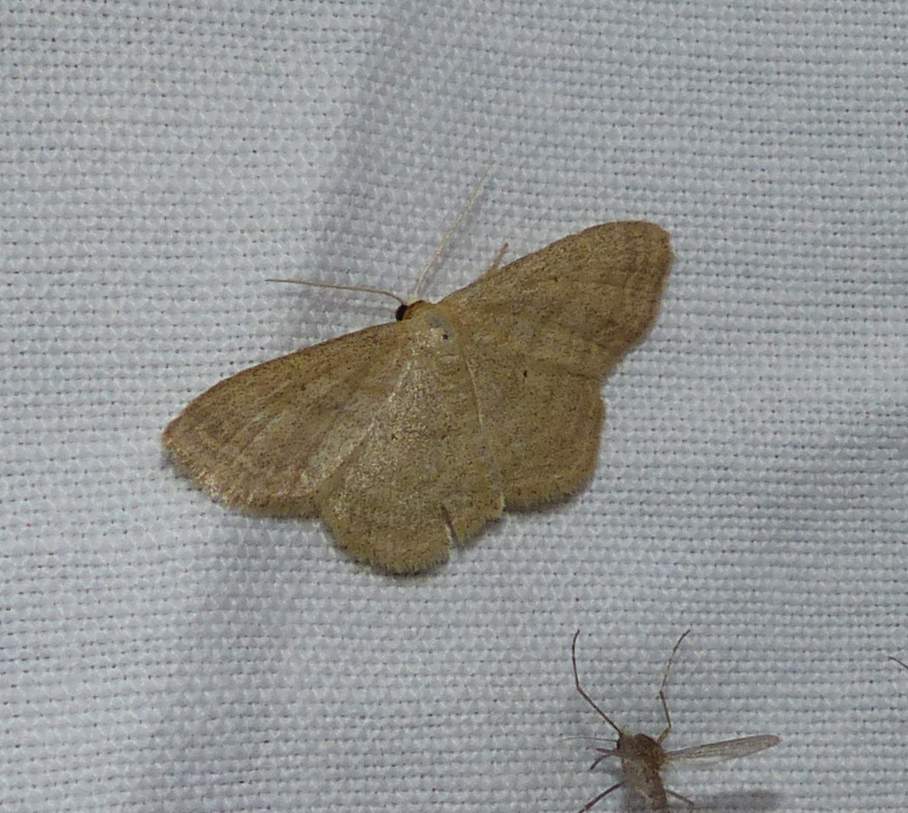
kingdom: Animalia
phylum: Arthropoda
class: Insecta
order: Lepidoptera
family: Geometridae
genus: Scopula
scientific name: Scopula inductata
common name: Soft-lined wave
